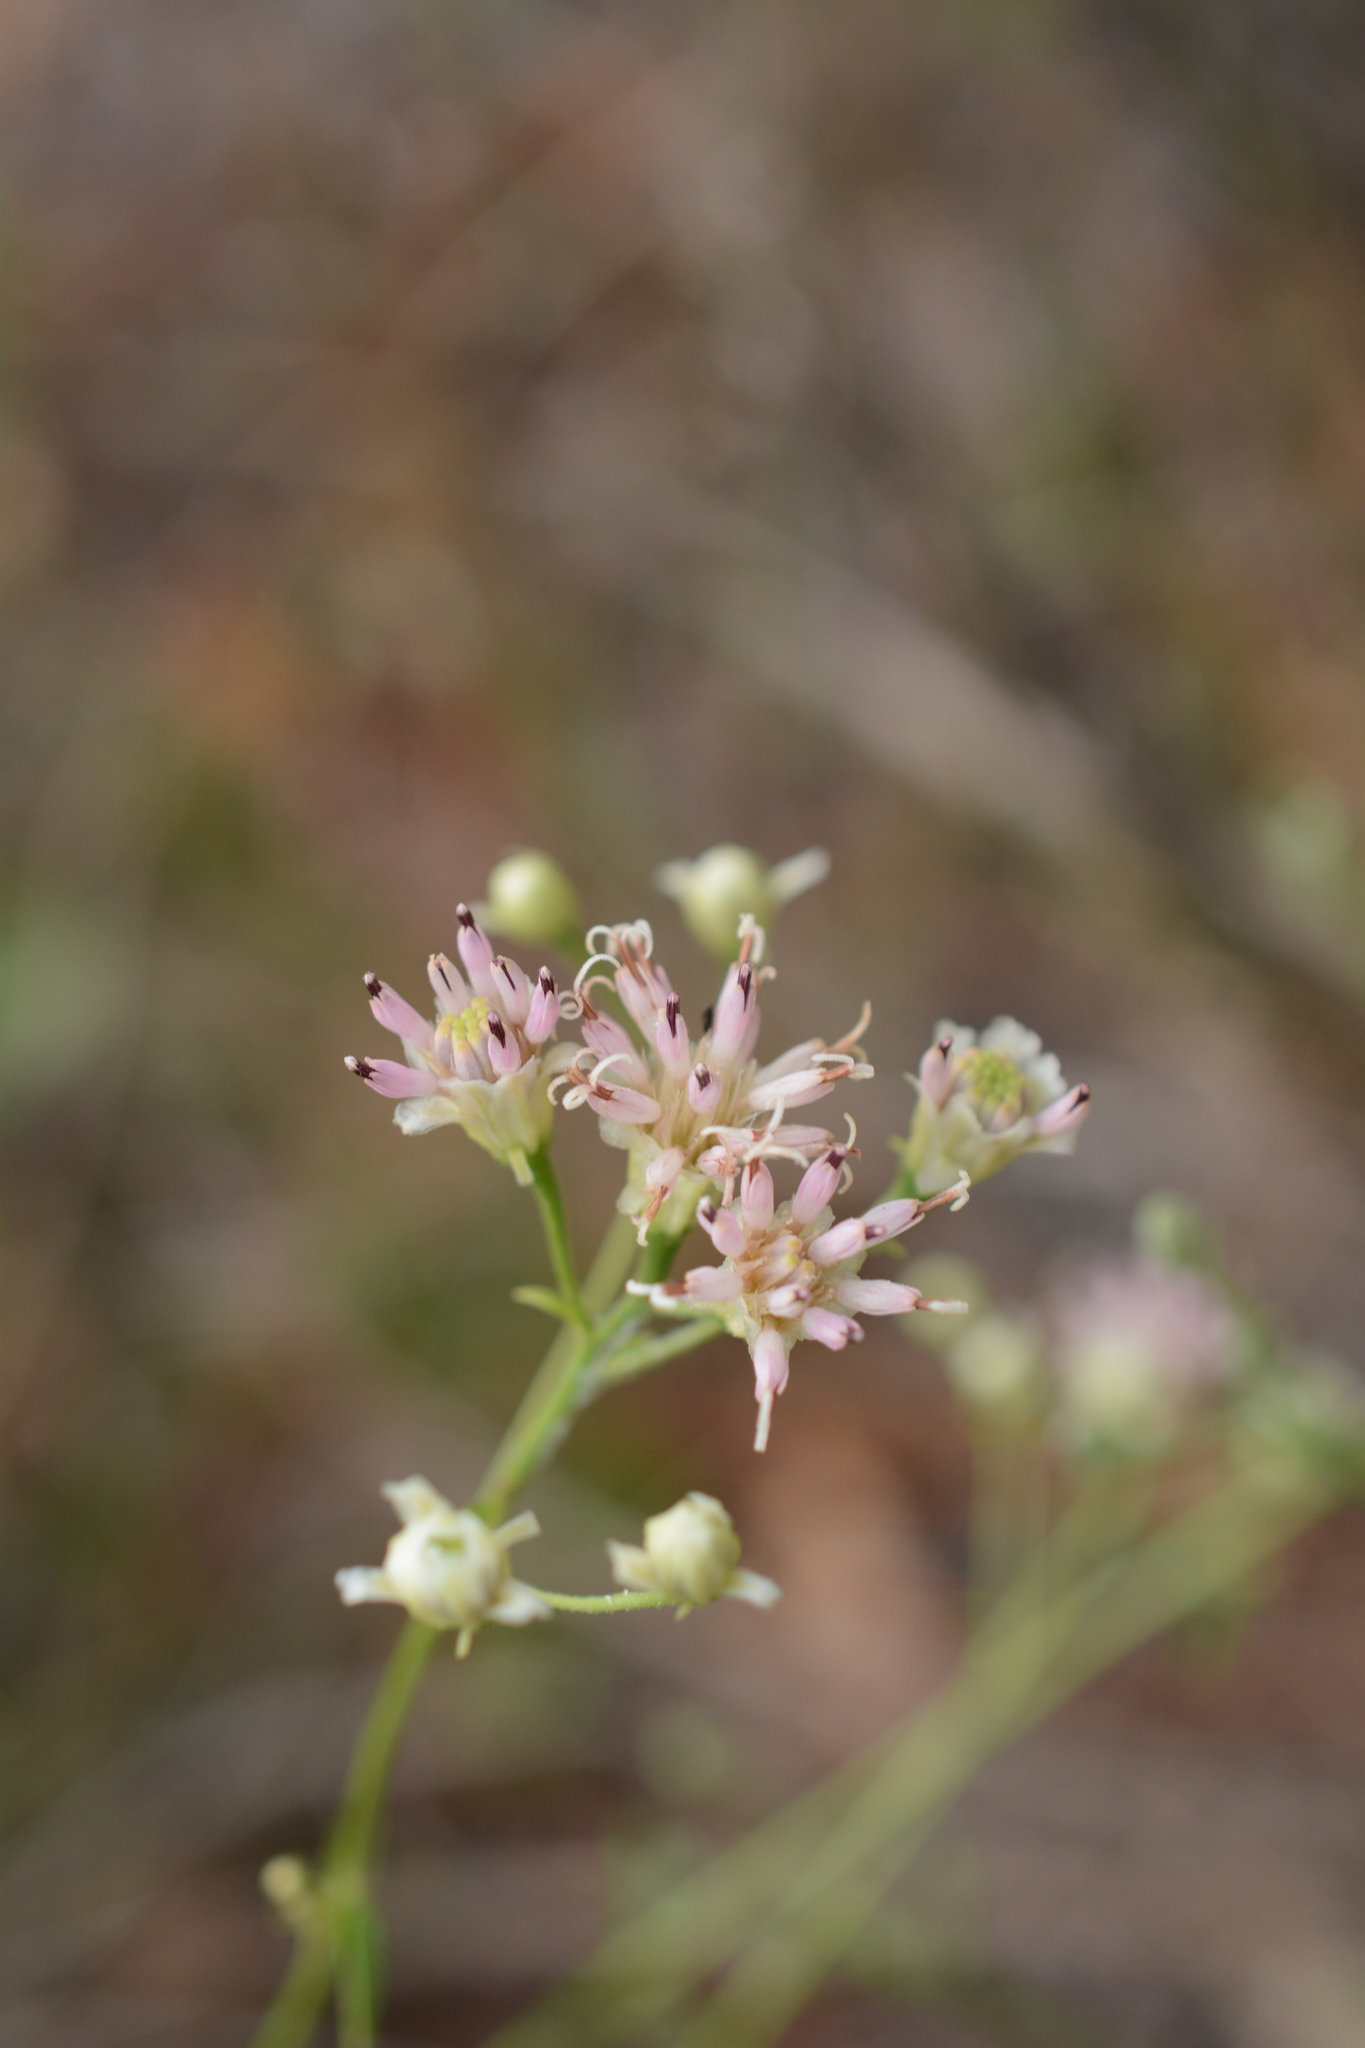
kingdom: Plantae
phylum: Tracheophyta
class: Magnoliopsida
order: Asterales
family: Asteraceae
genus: Palafoxia
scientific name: Palafoxia integrifolia
